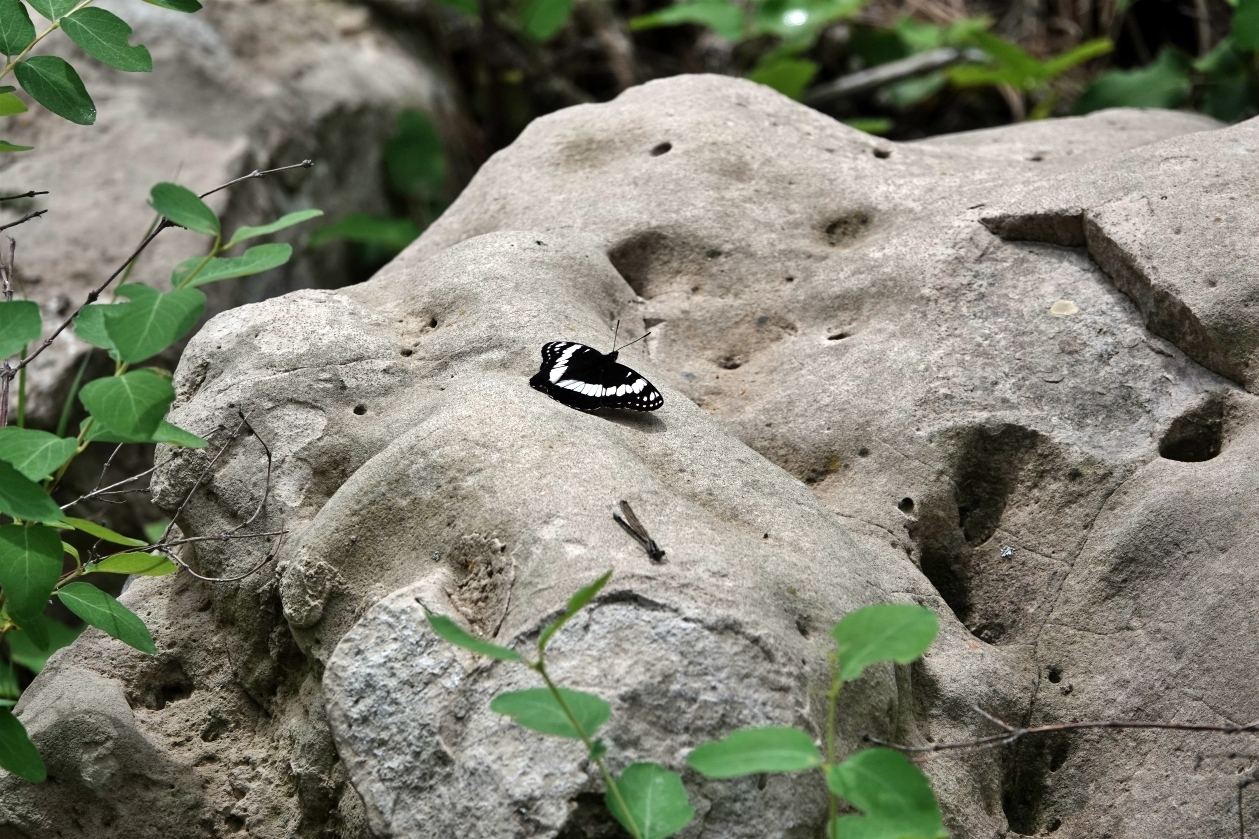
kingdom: Animalia
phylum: Arthropoda
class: Insecta
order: Lepidoptera
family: Nymphalidae
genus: Limenitis
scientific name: Limenitis weidemeyerii
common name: Weidemeyer's admiral
